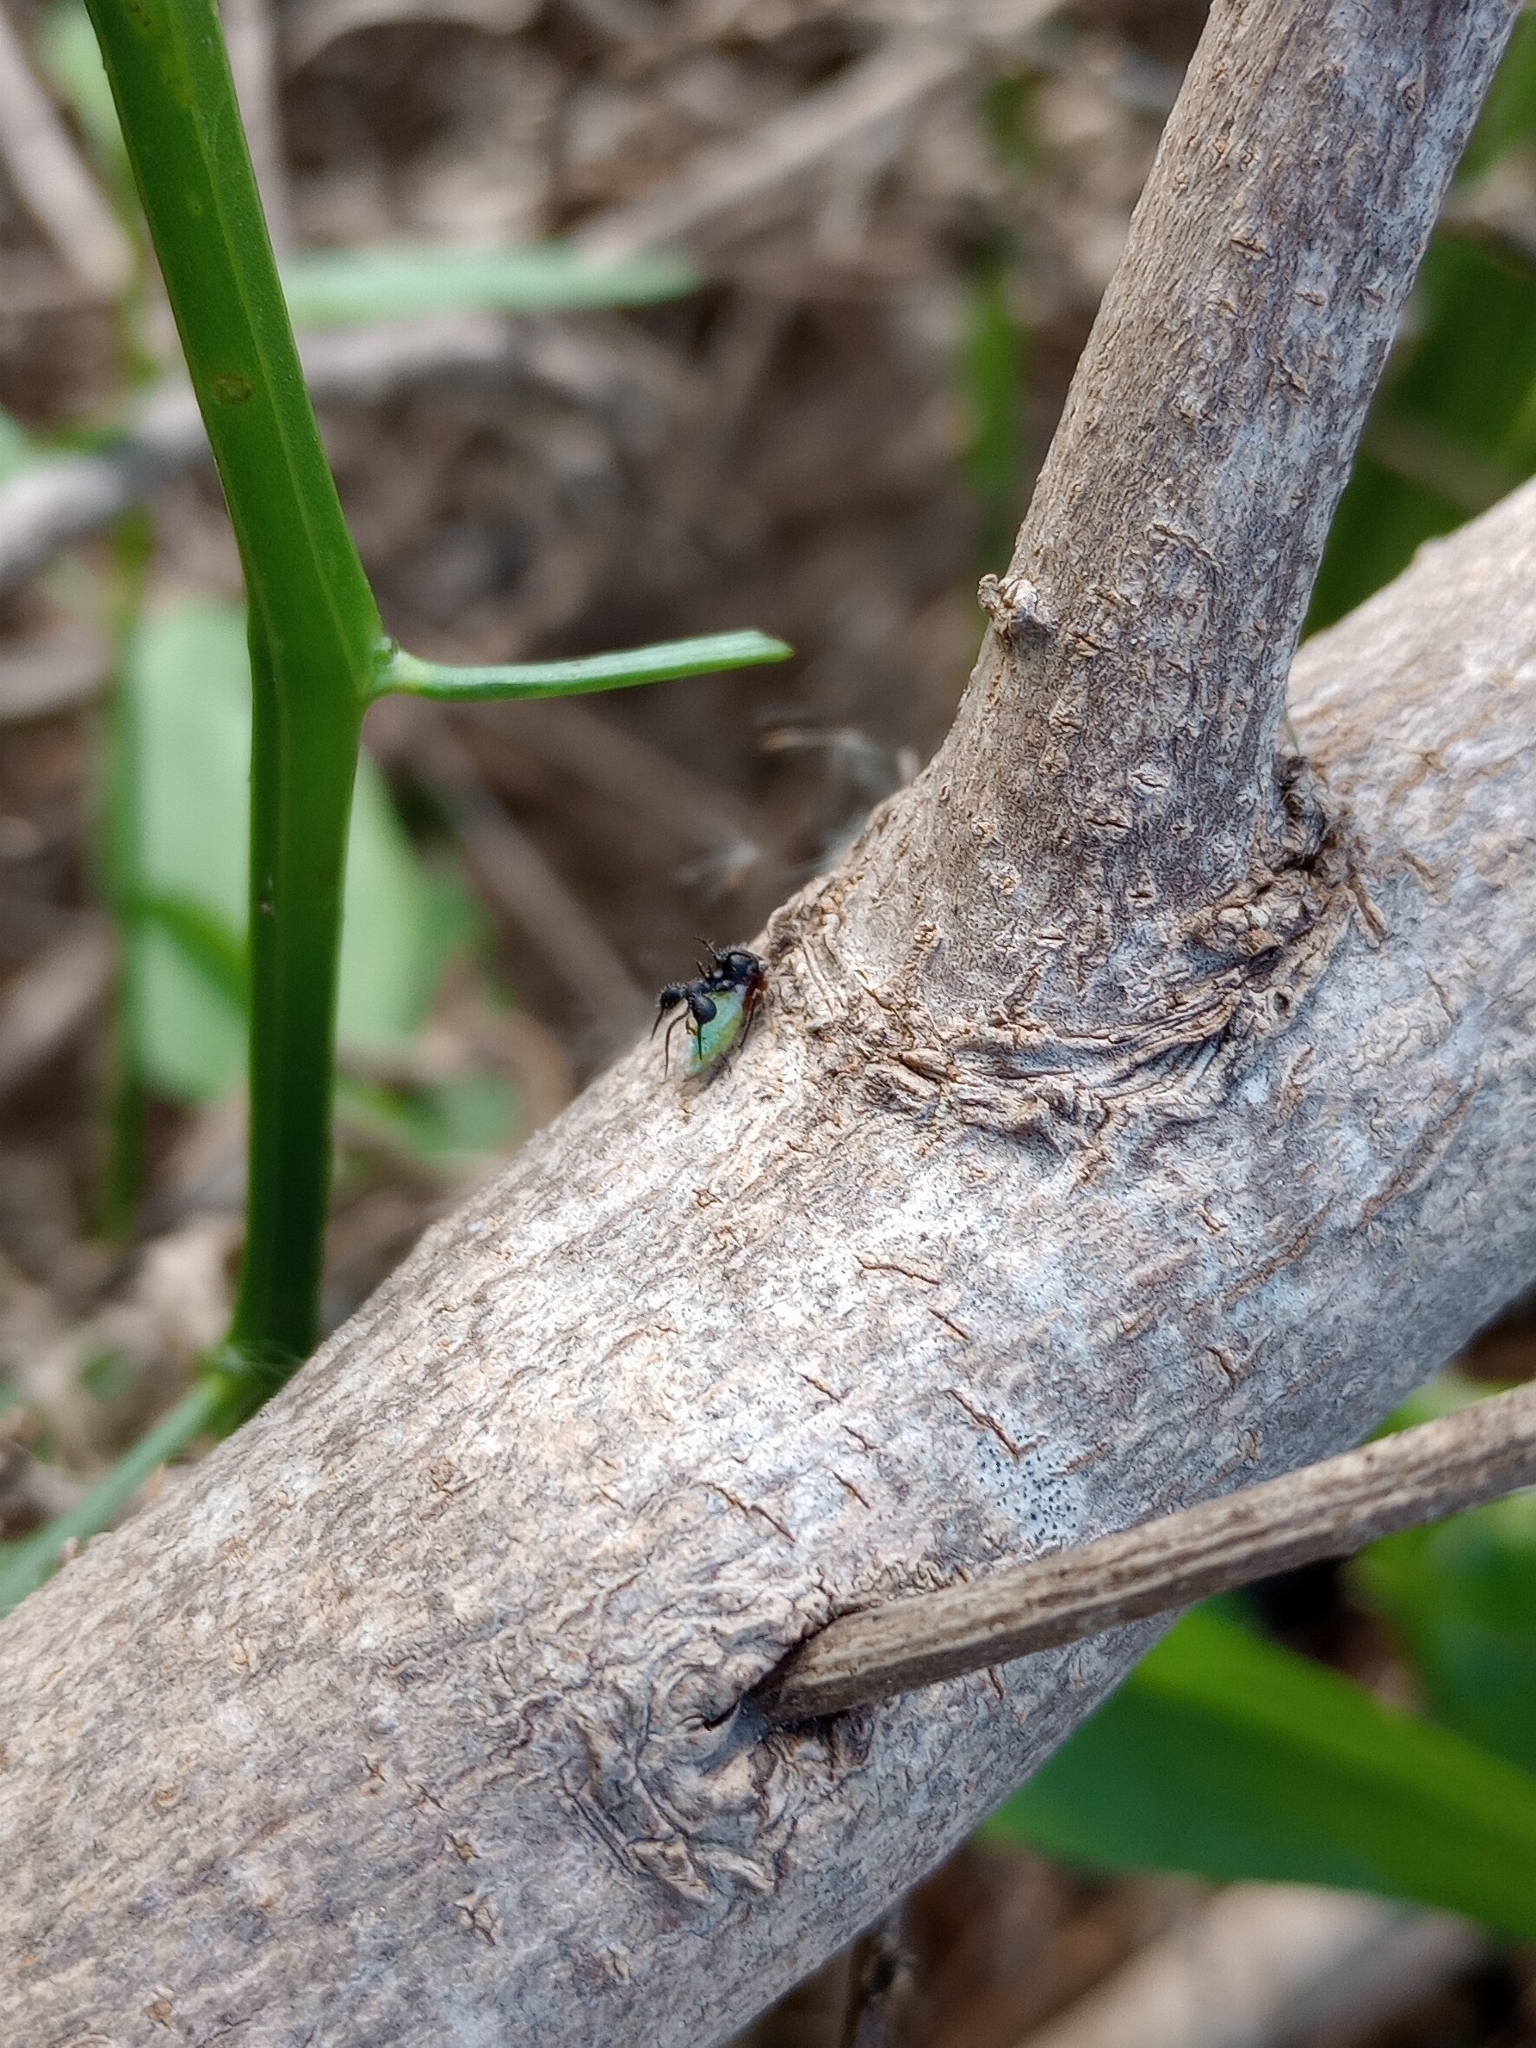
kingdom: Animalia
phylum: Arthropoda
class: Insecta
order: Hemiptera
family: Membracidae
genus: Cyphonia
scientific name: Cyphonia clavata
